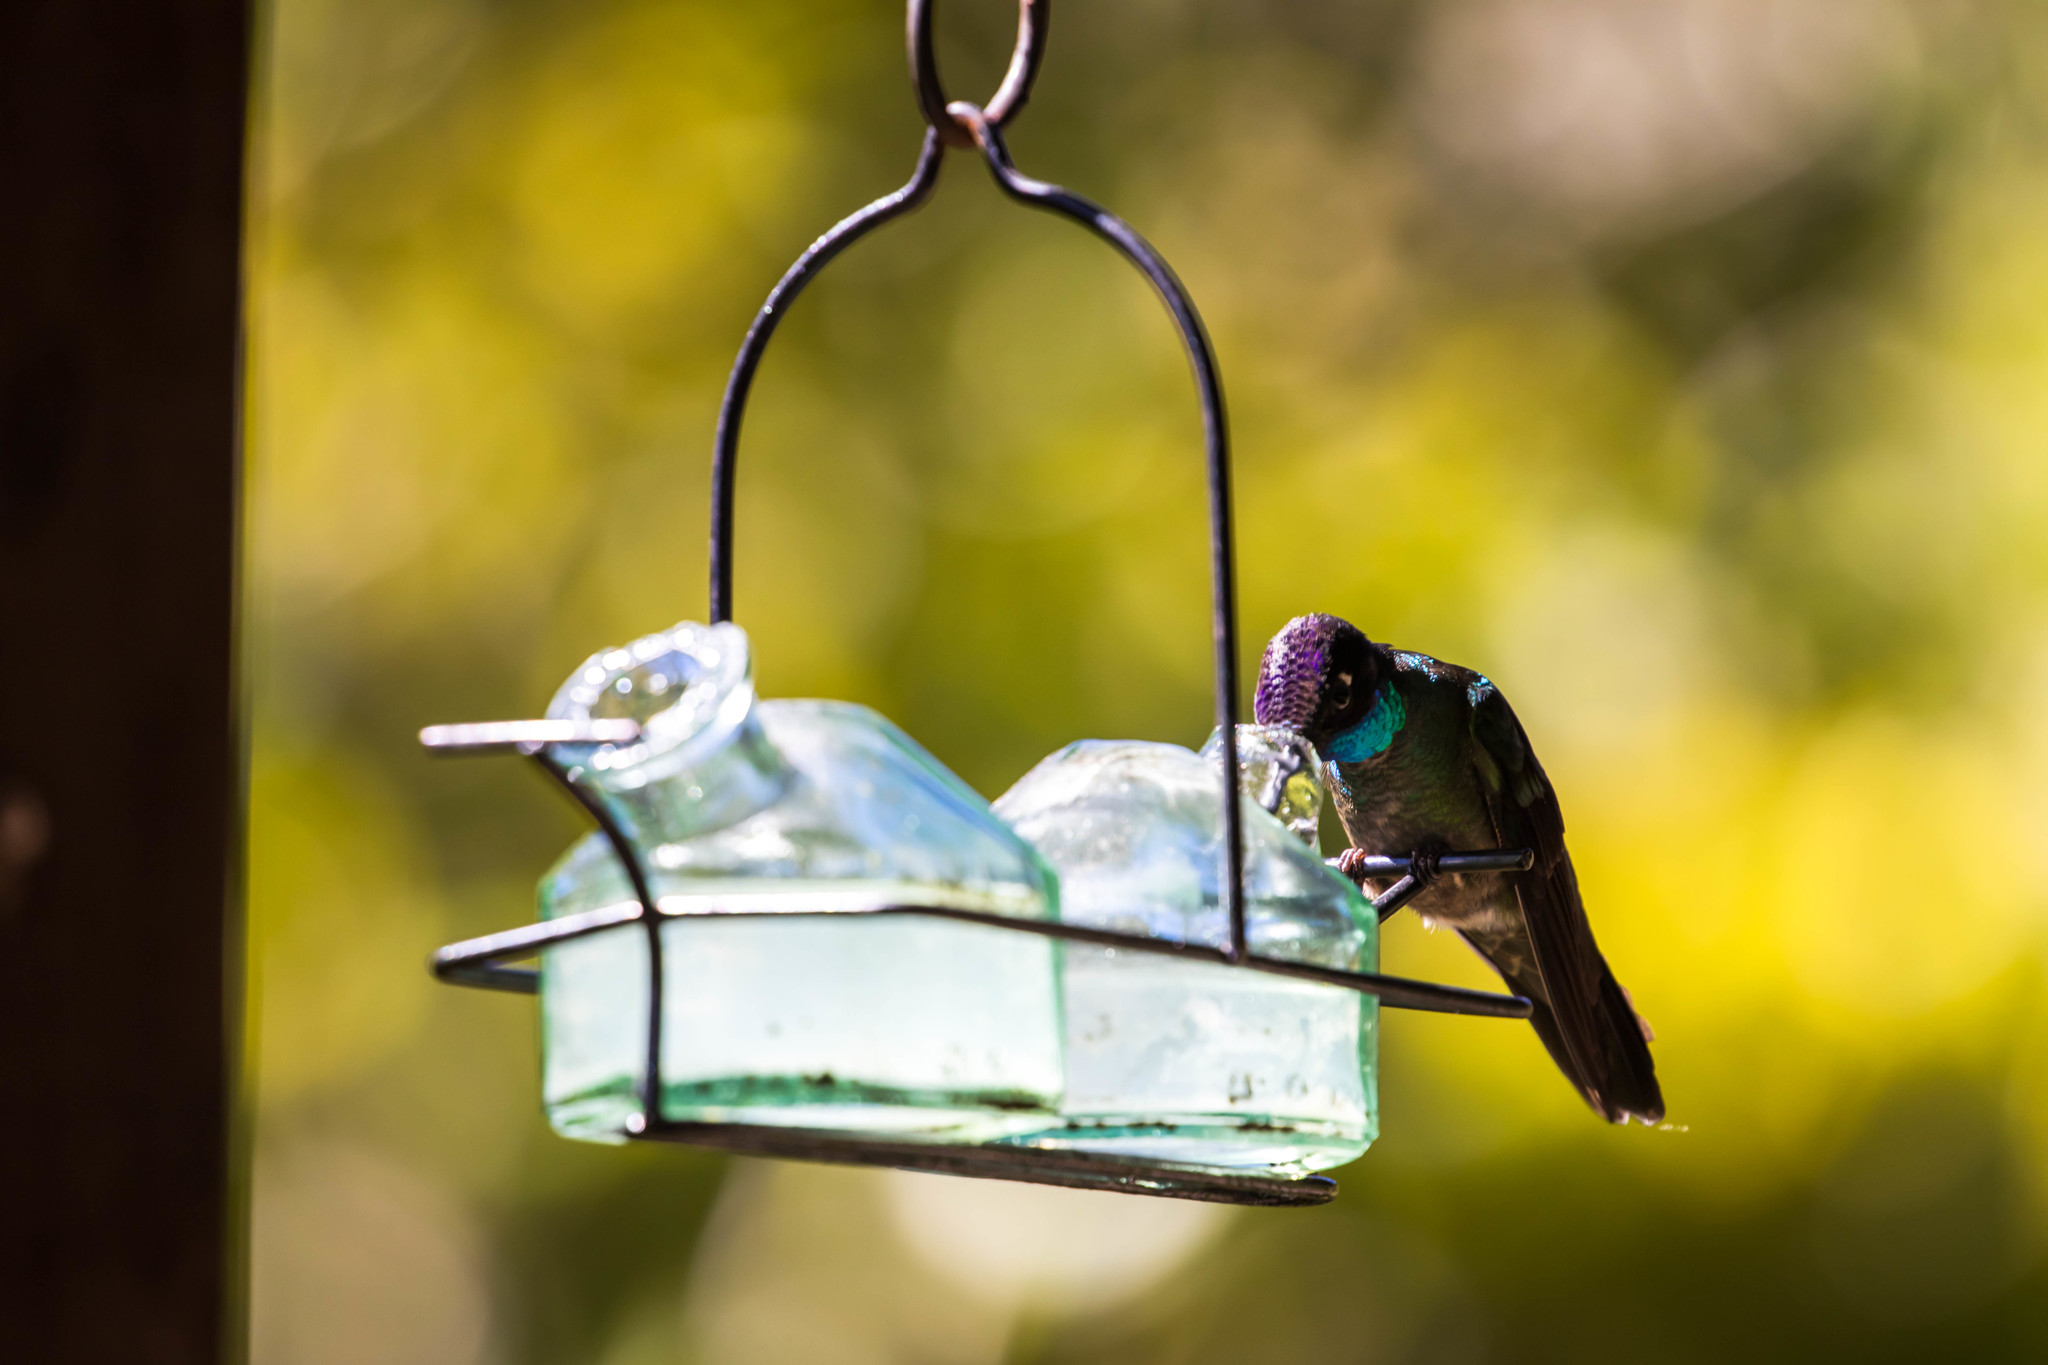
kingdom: Animalia
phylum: Chordata
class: Aves
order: Apodiformes
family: Trochilidae
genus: Eugenes
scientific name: Eugenes spectabilis
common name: Talamanca hummingbird
